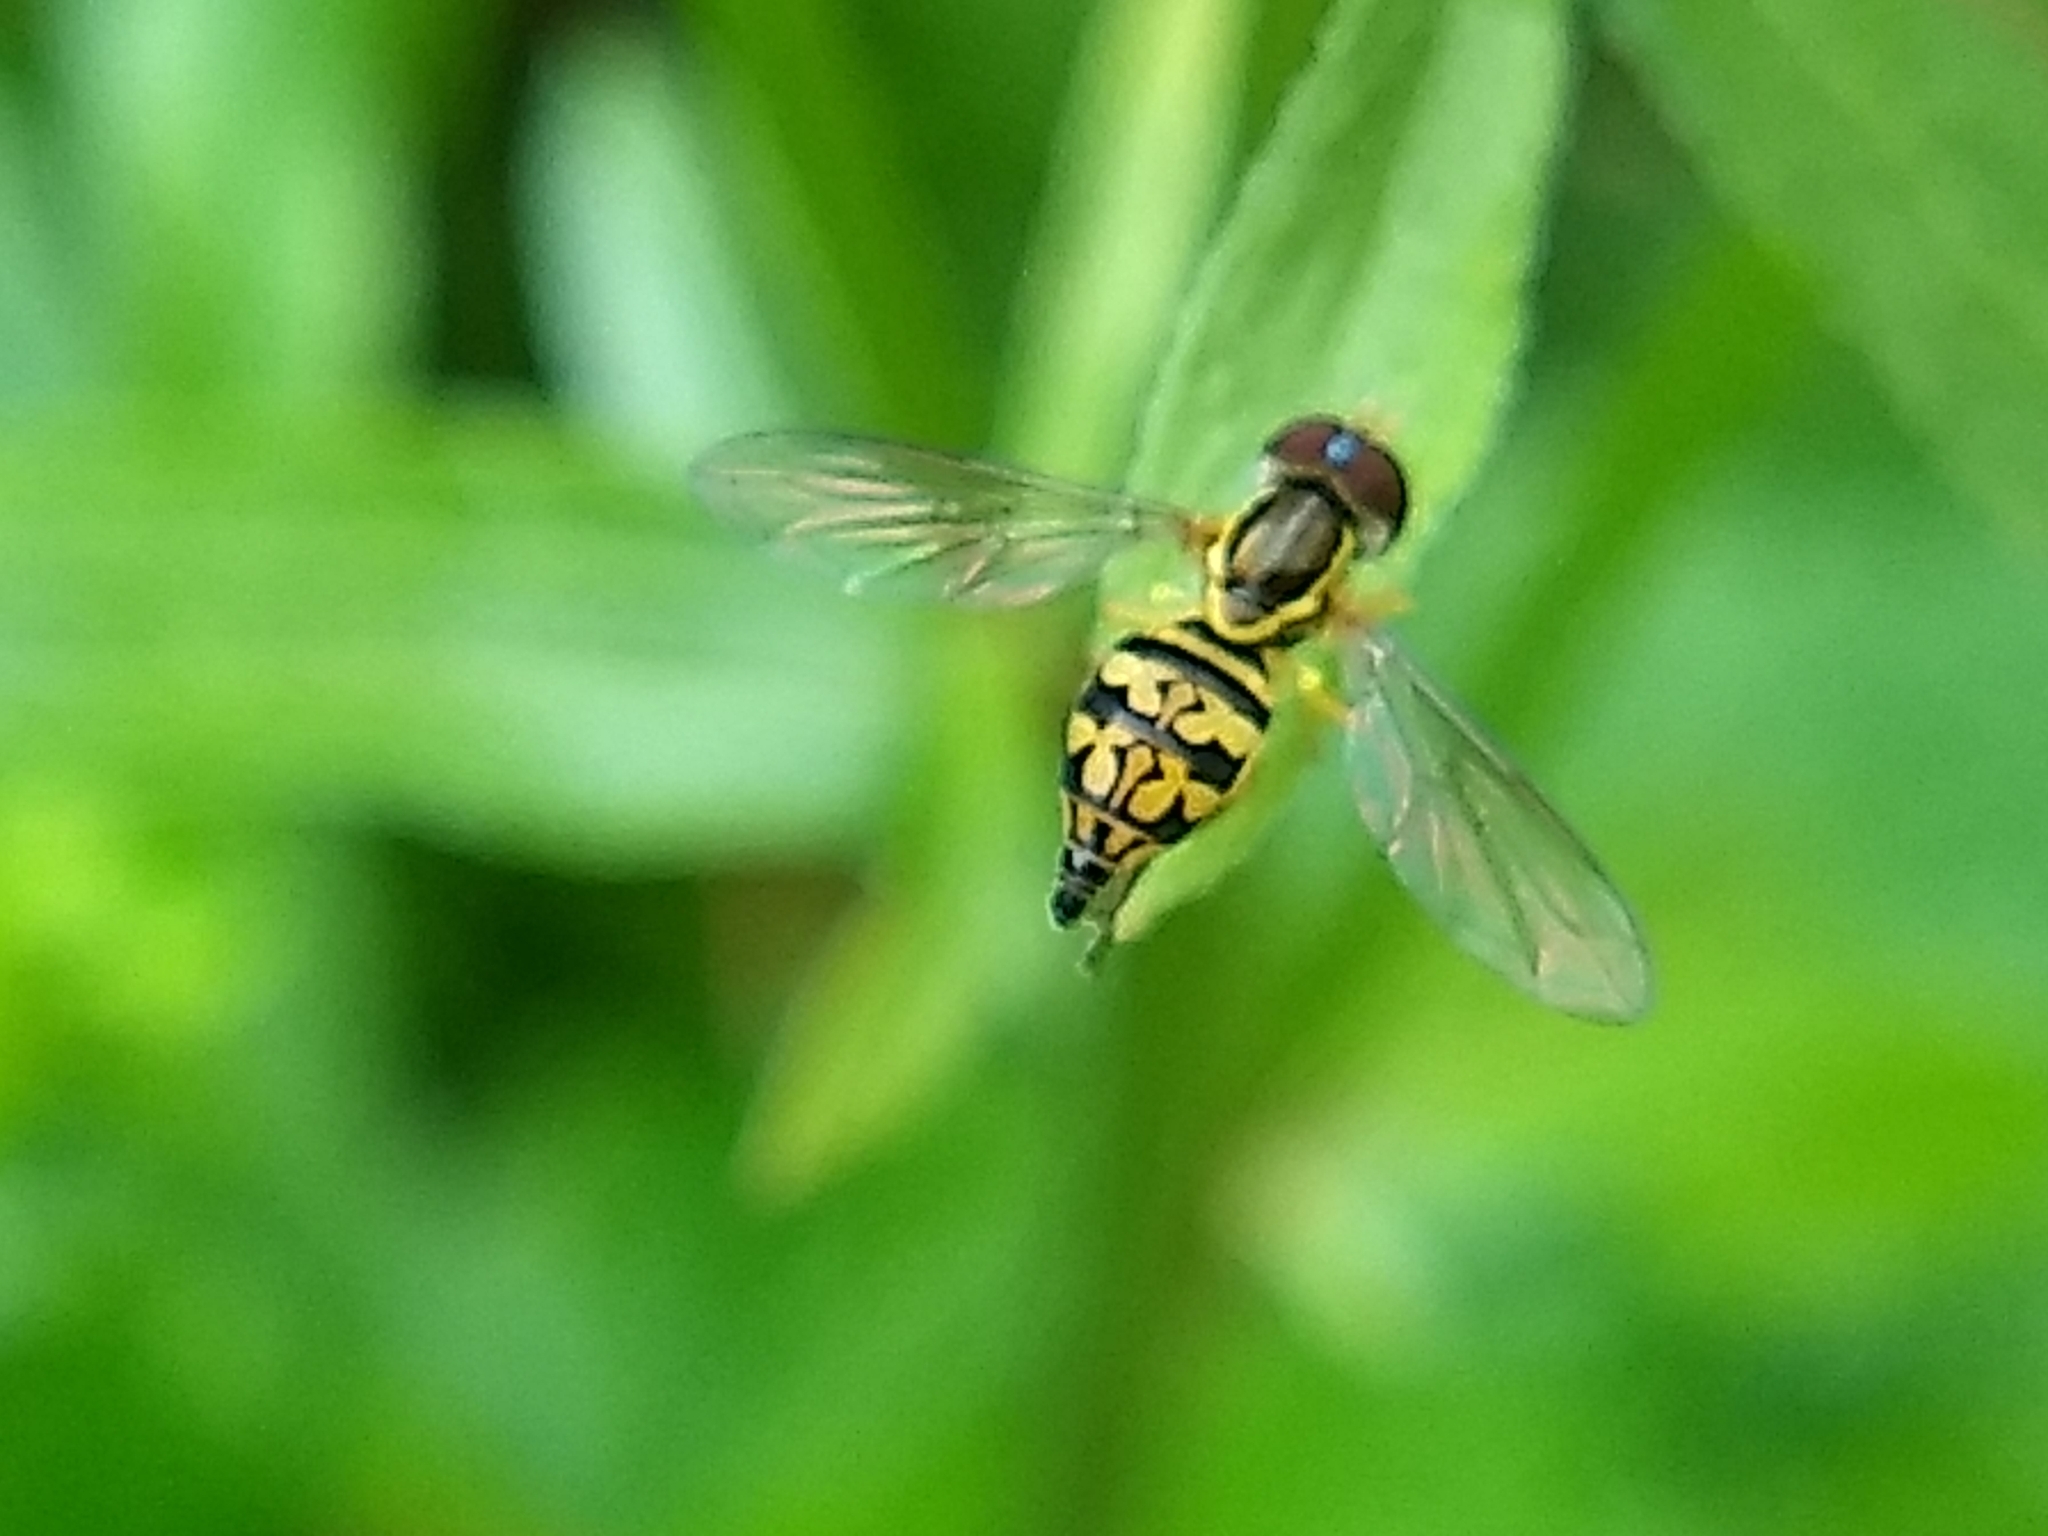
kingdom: Animalia
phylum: Arthropoda
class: Insecta
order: Diptera
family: Syrphidae
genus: Toxomerus
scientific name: Toxomerus geminatus
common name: Eastern calligrapher
